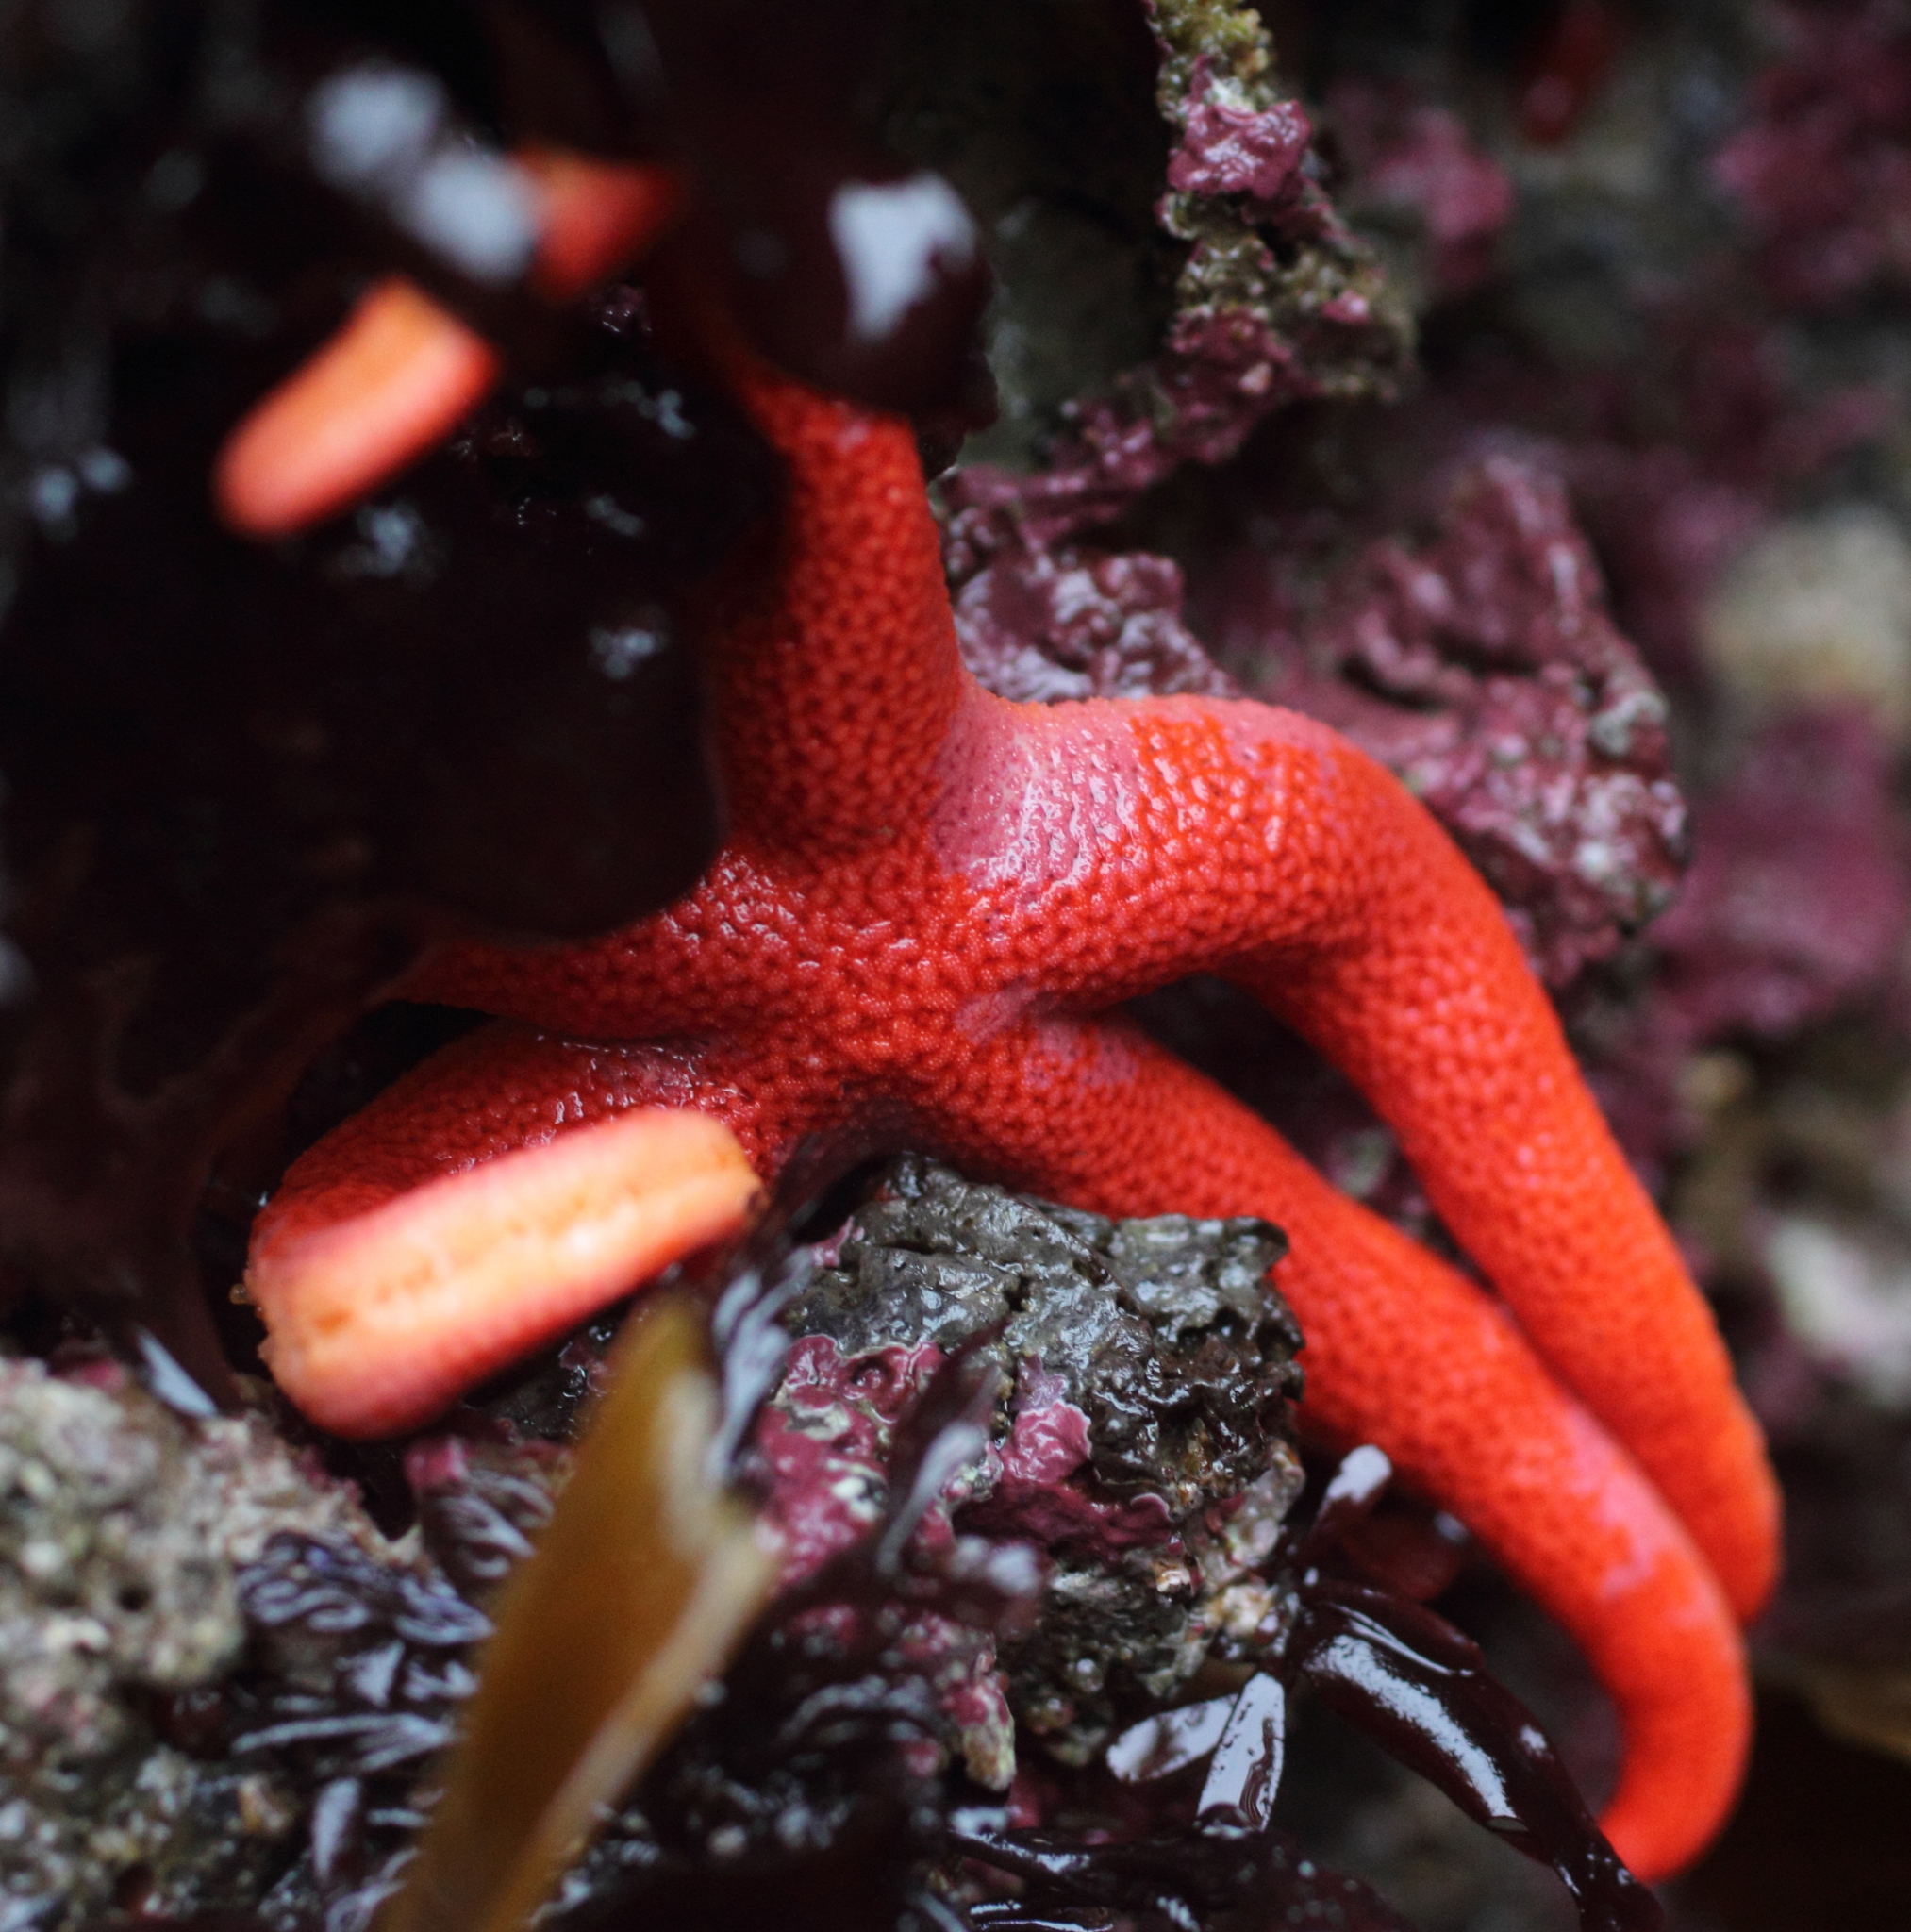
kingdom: Animalia
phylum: Echinodermata
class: Asteroidea
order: Spinulosida
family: Echinasteridae
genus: Henricia
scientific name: Henricia leviuscula
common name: Pacific blood star
